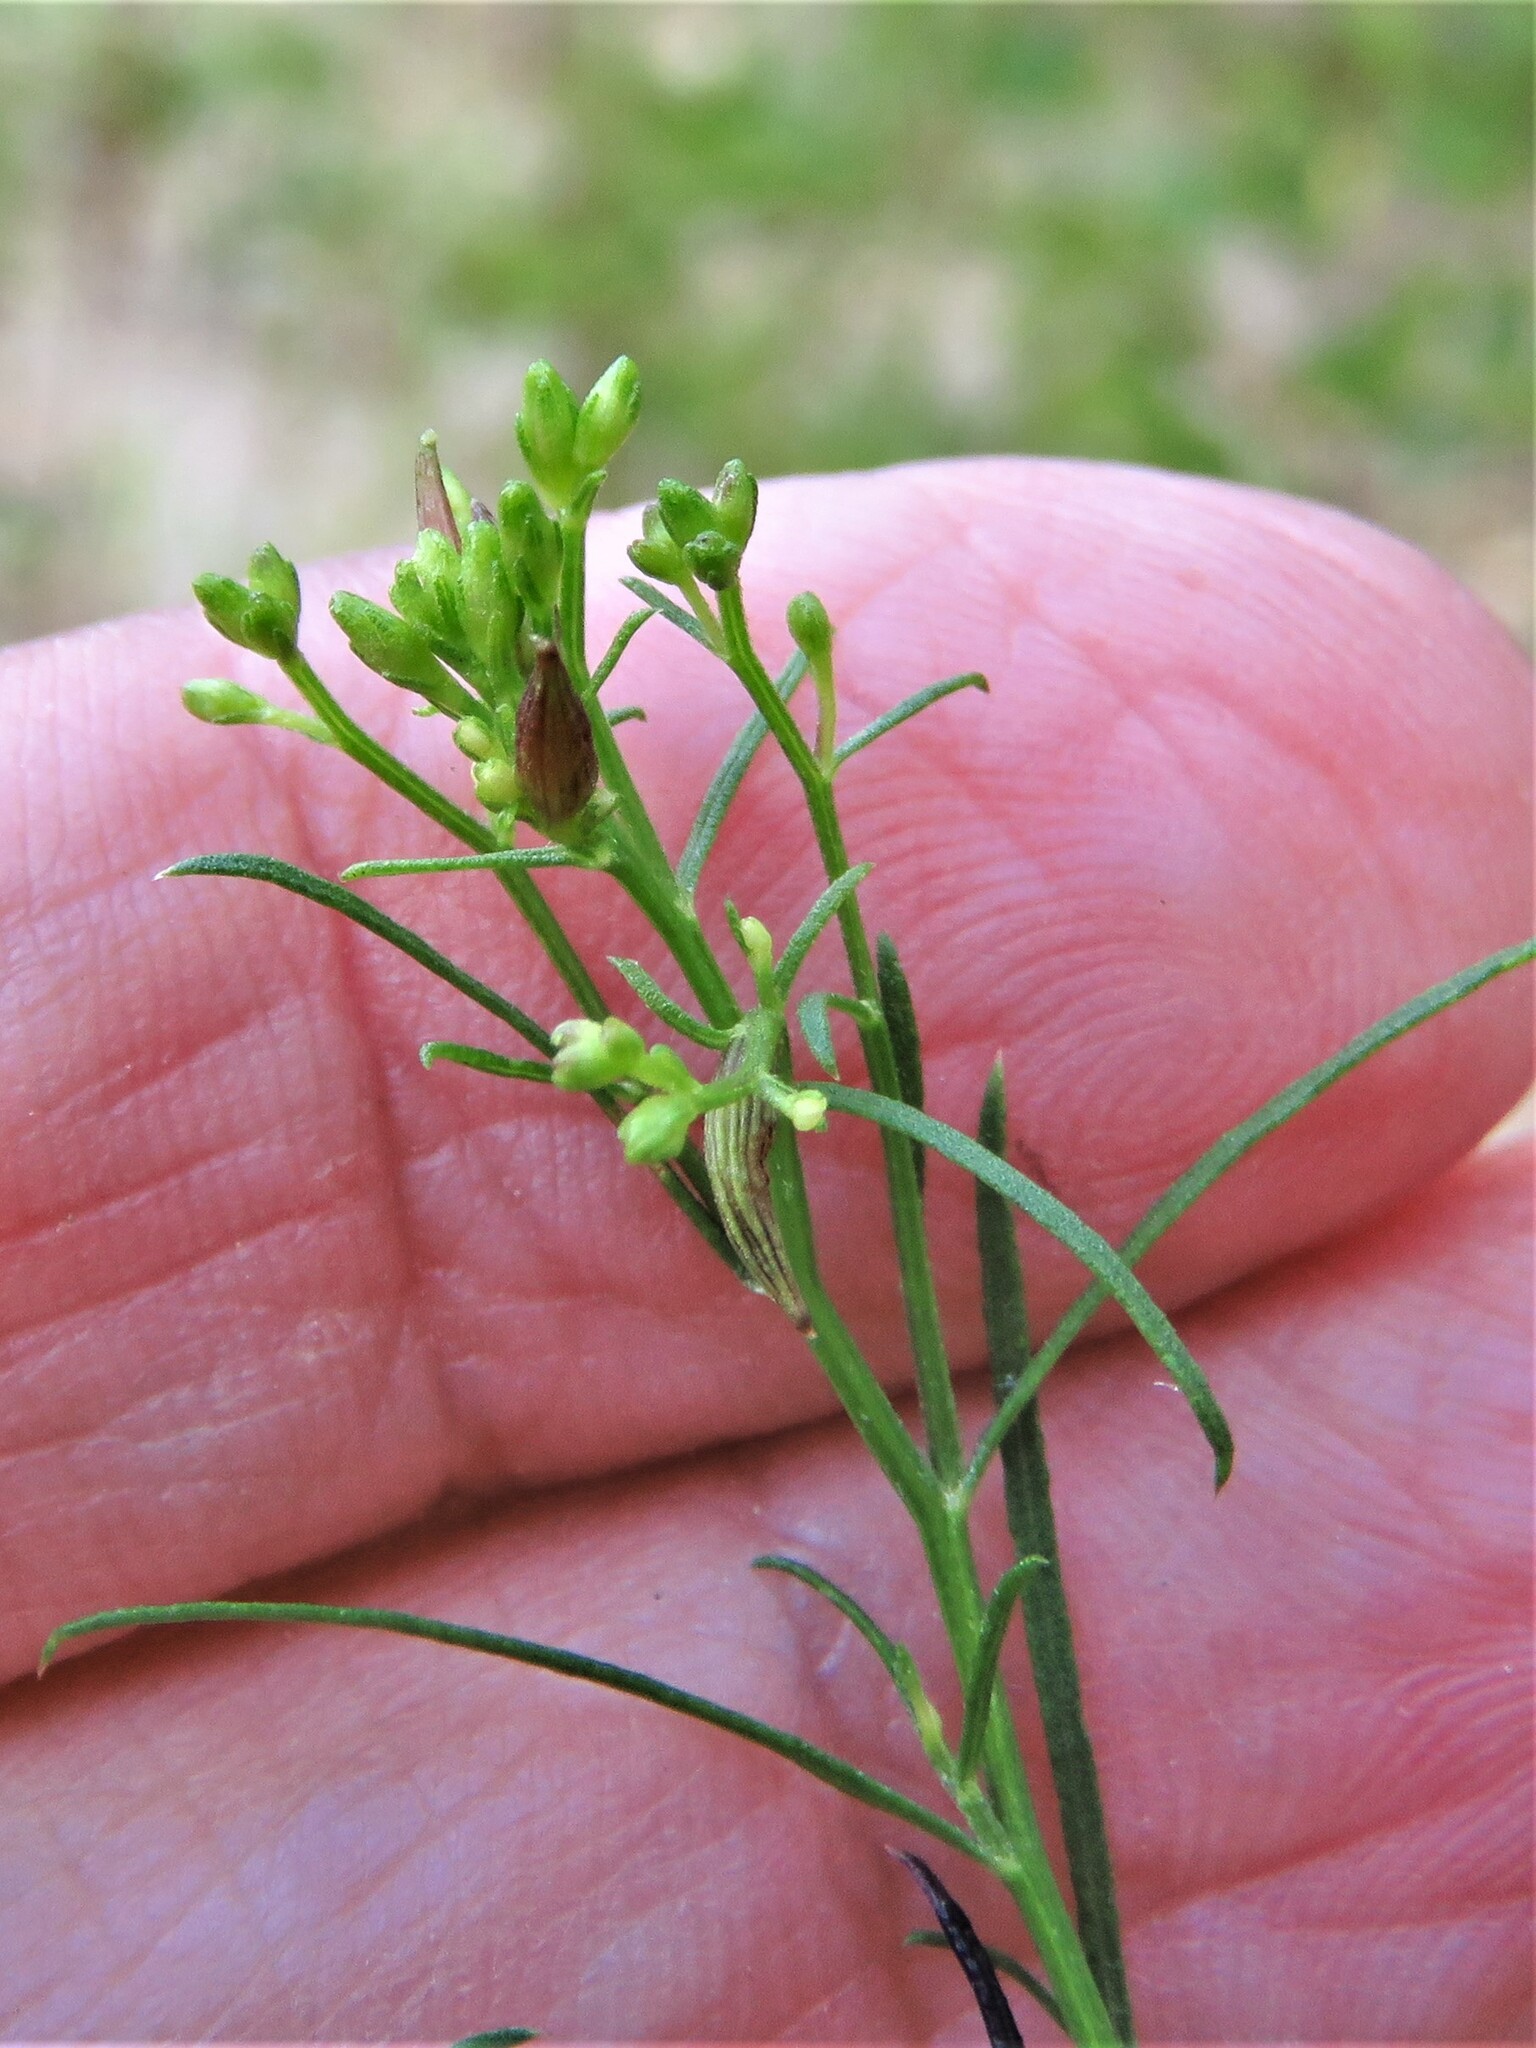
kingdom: Animalia
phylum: Arthropoda
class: Insecta
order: Diptera
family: Cecidomyiidae
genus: Rhopalomyia
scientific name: Rhopalomyia fusiformae
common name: Goldentop sessile gall midge
